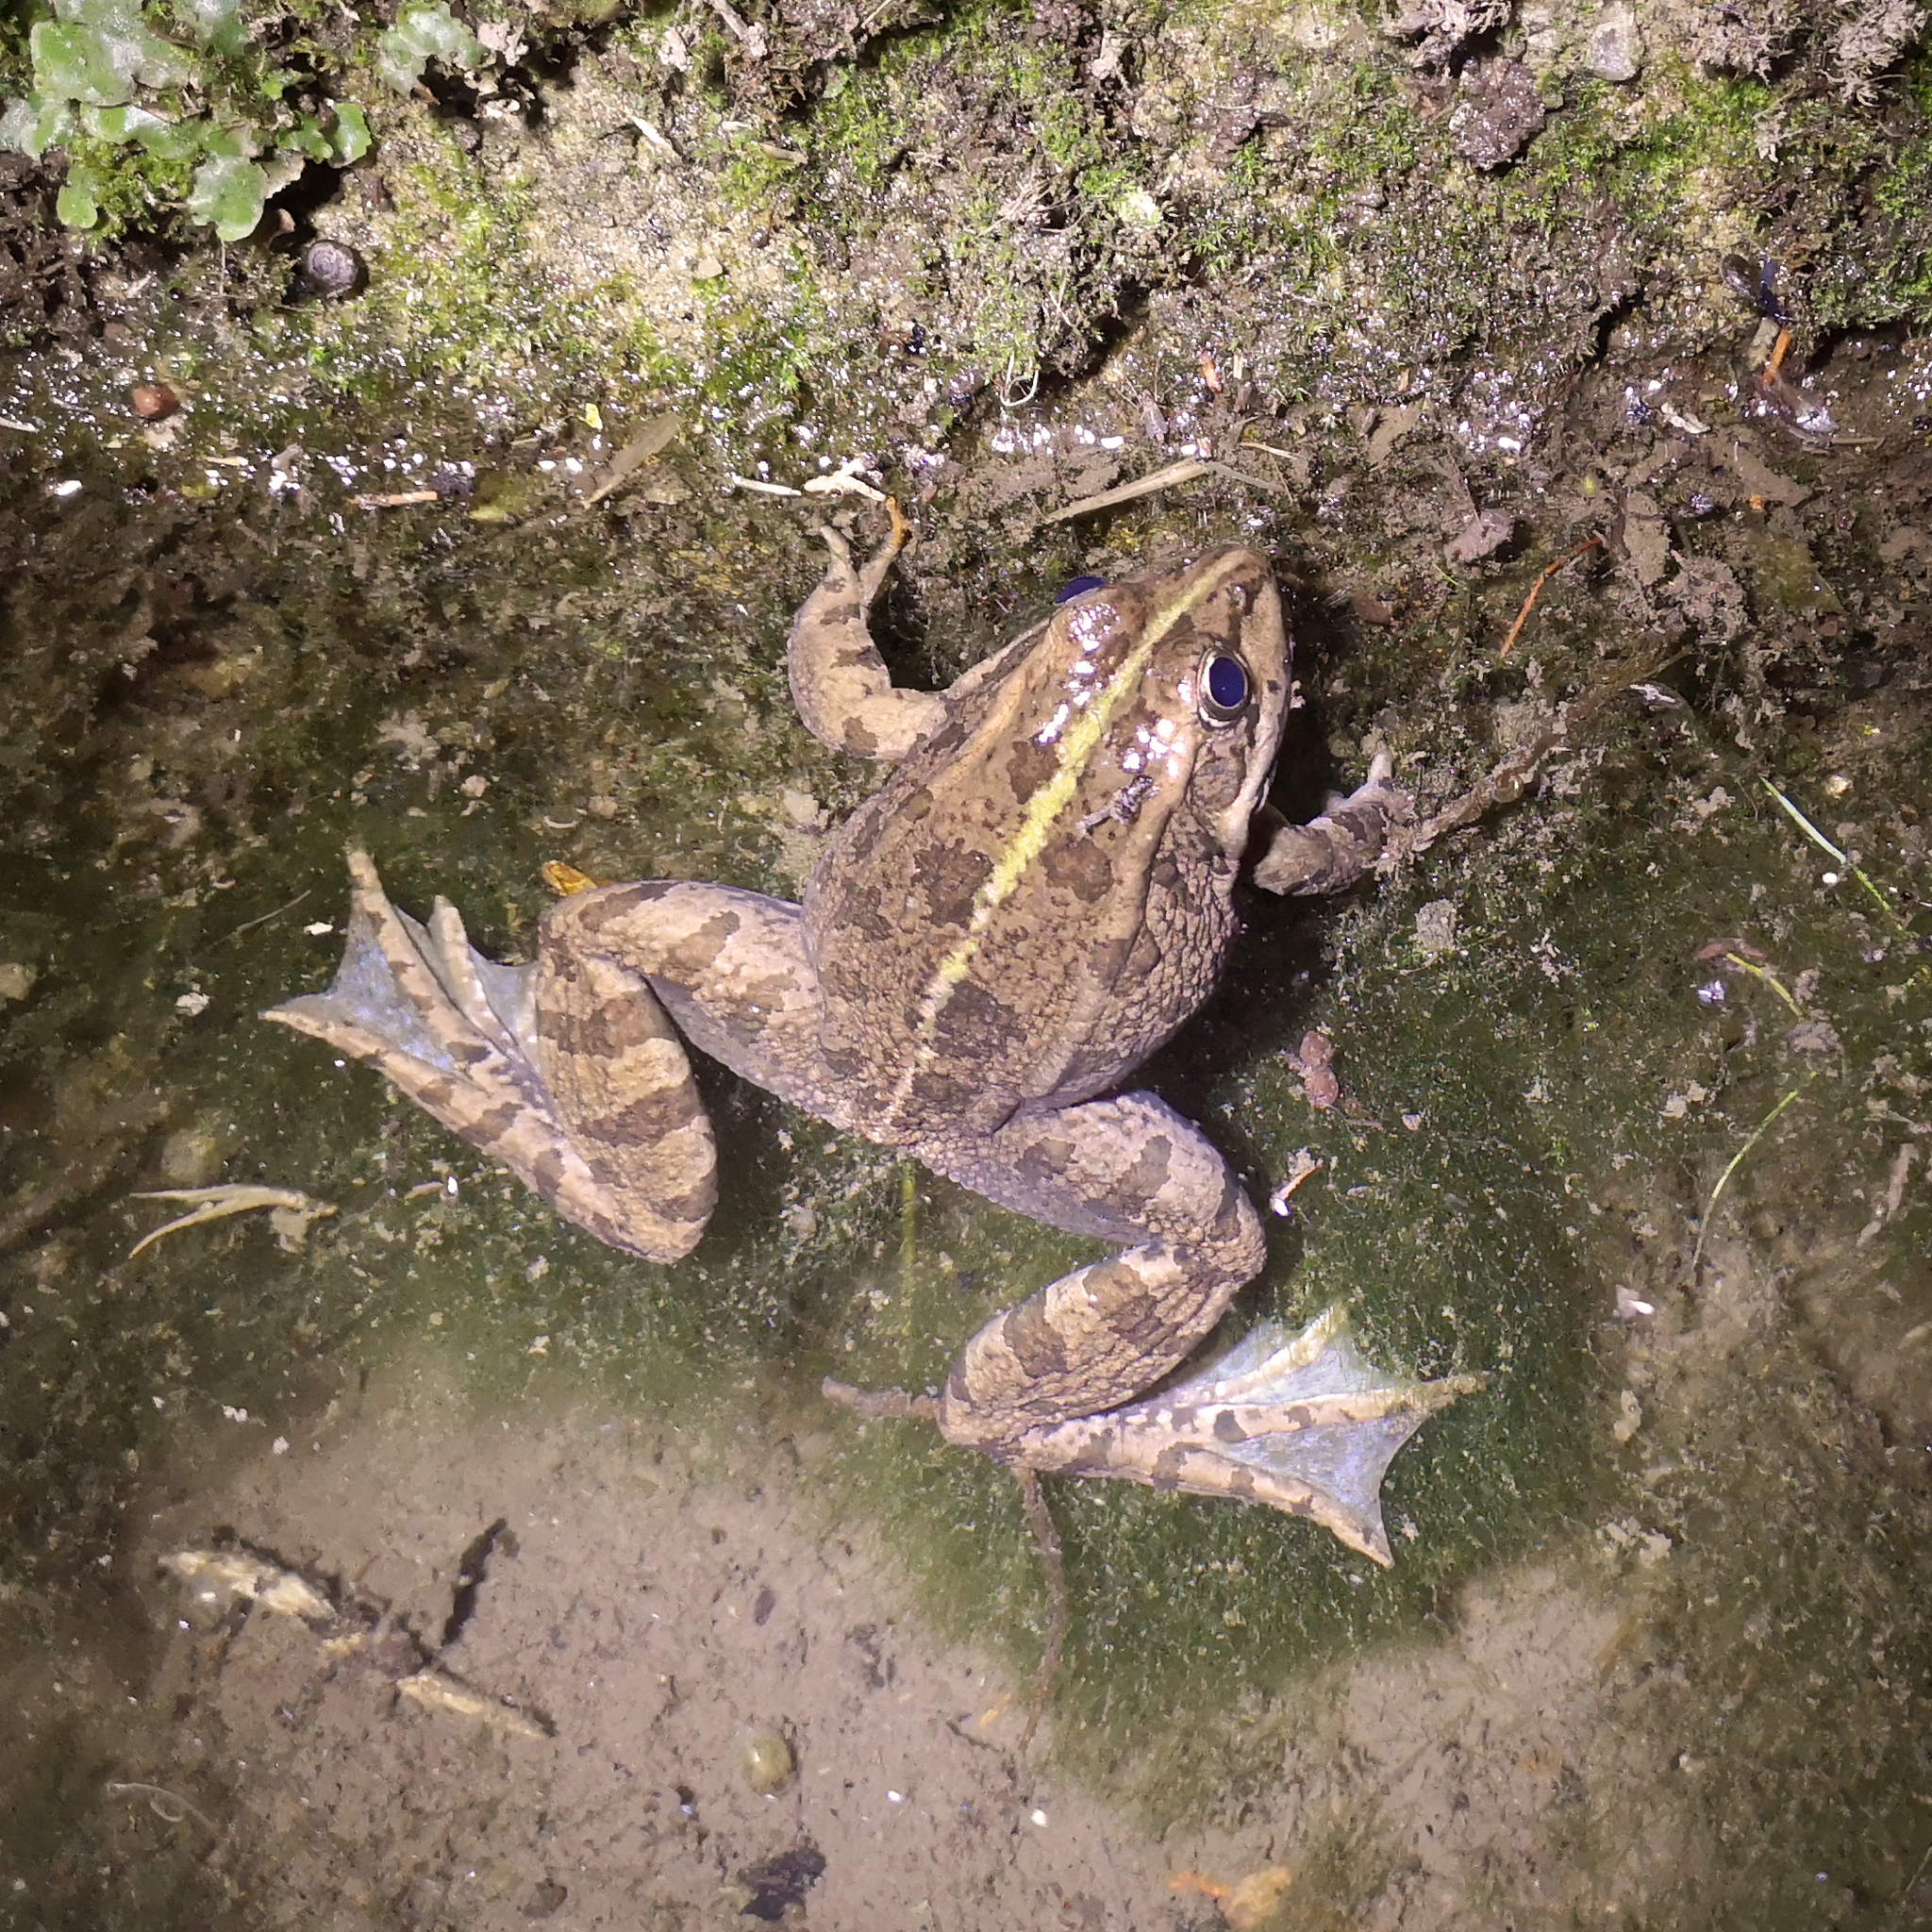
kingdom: Animalia
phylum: Chordata
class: Amphibia
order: Anura
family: Ranidae
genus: Pelophylax
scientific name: Pelophylax perezi
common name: Perez's frog
